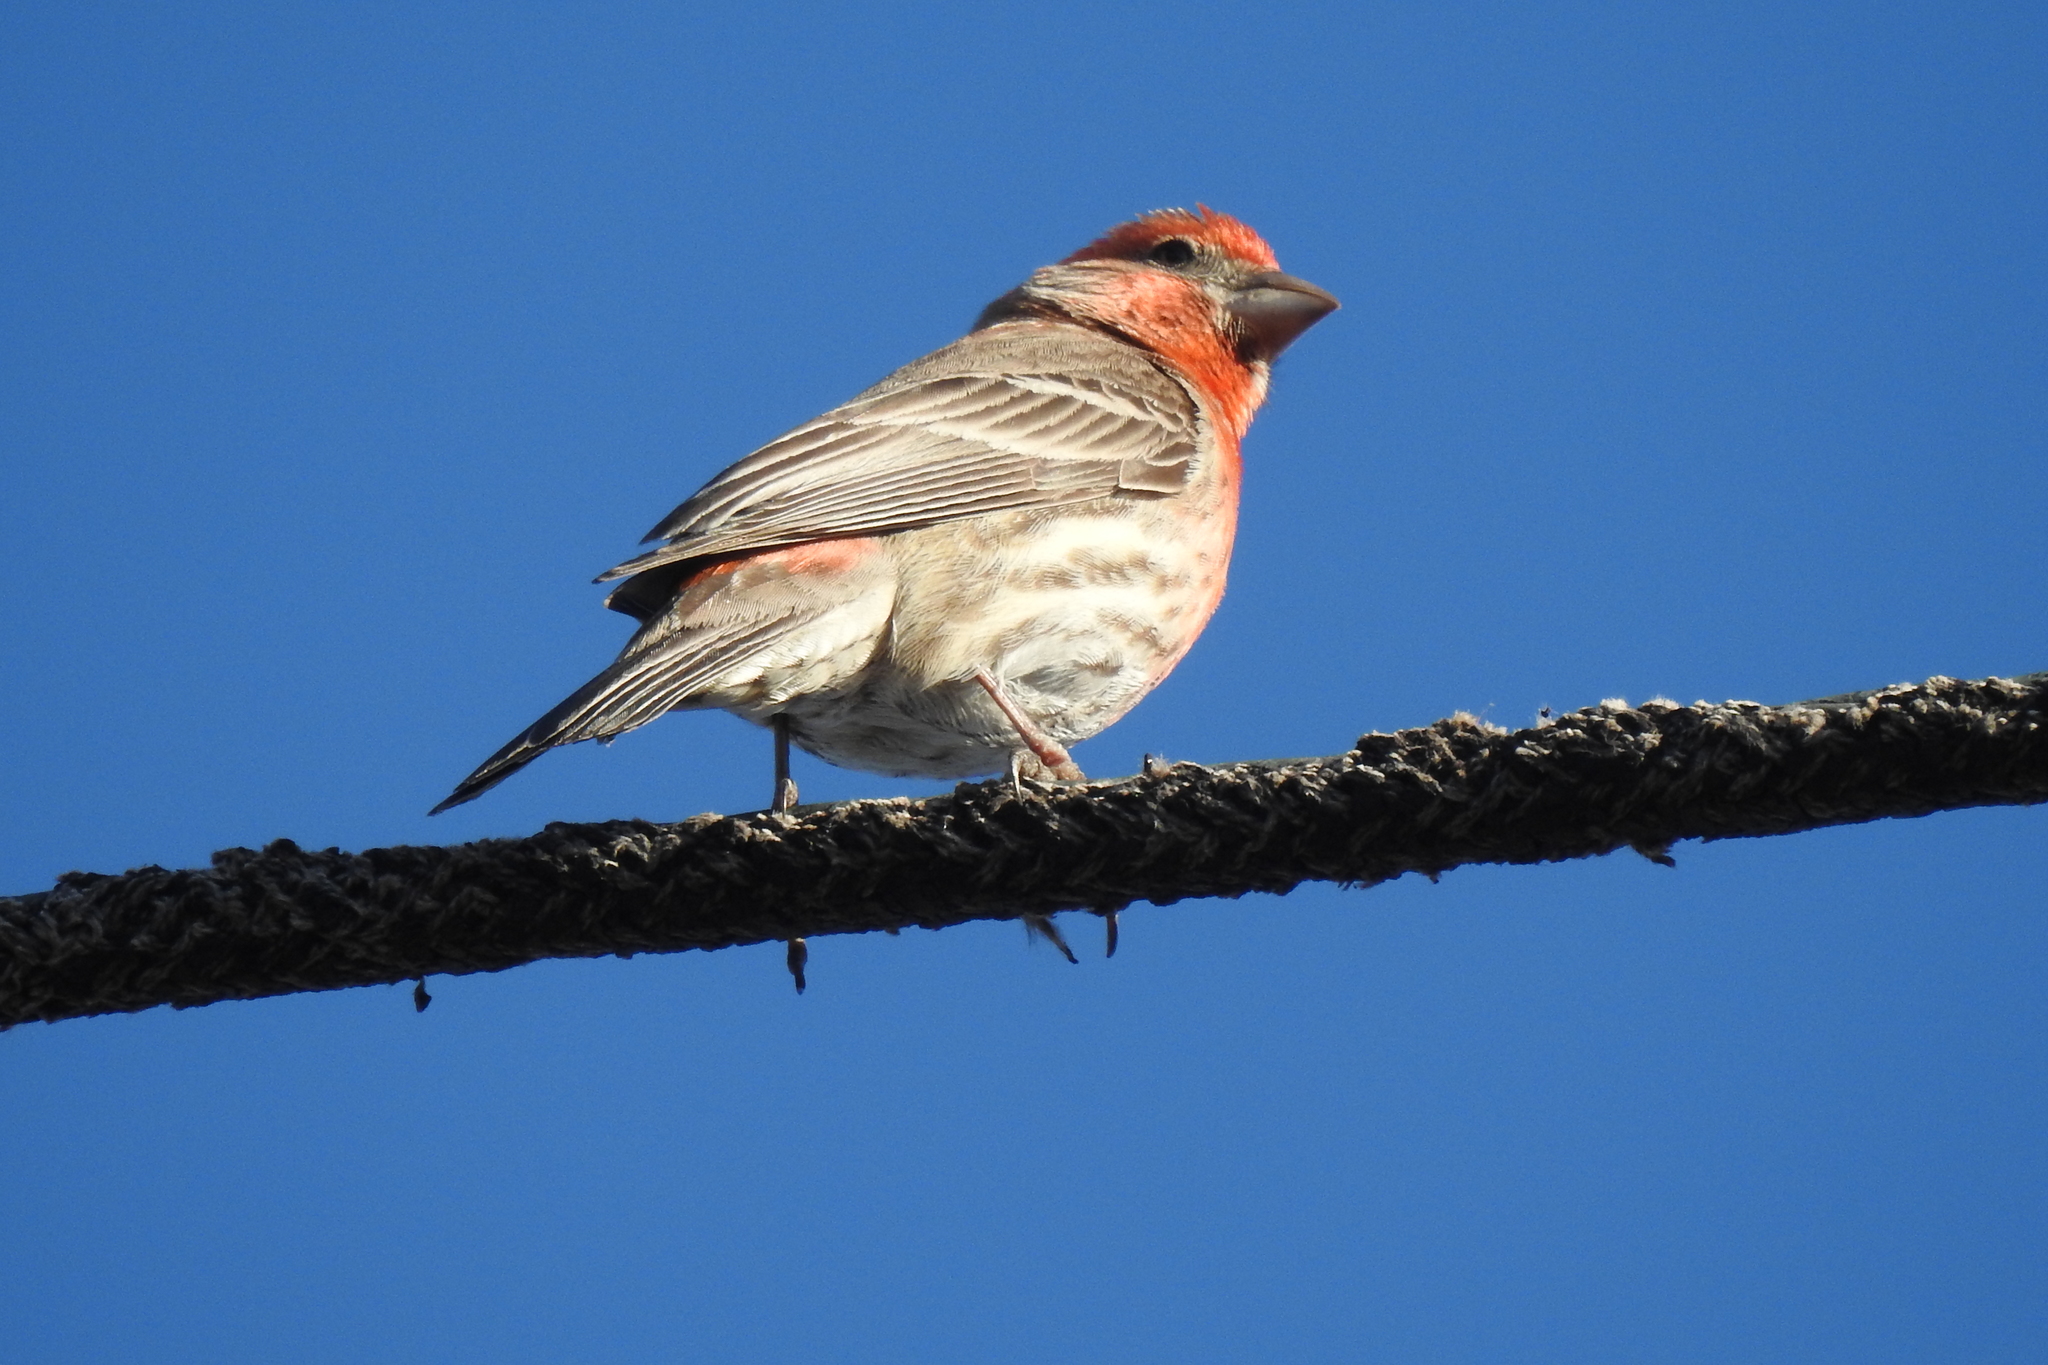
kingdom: Animalia
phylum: Chordata
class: Aves
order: Passeriformes
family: Fringillidae
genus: Haemorhous
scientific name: Haemorhous mexicanus
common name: House finch
